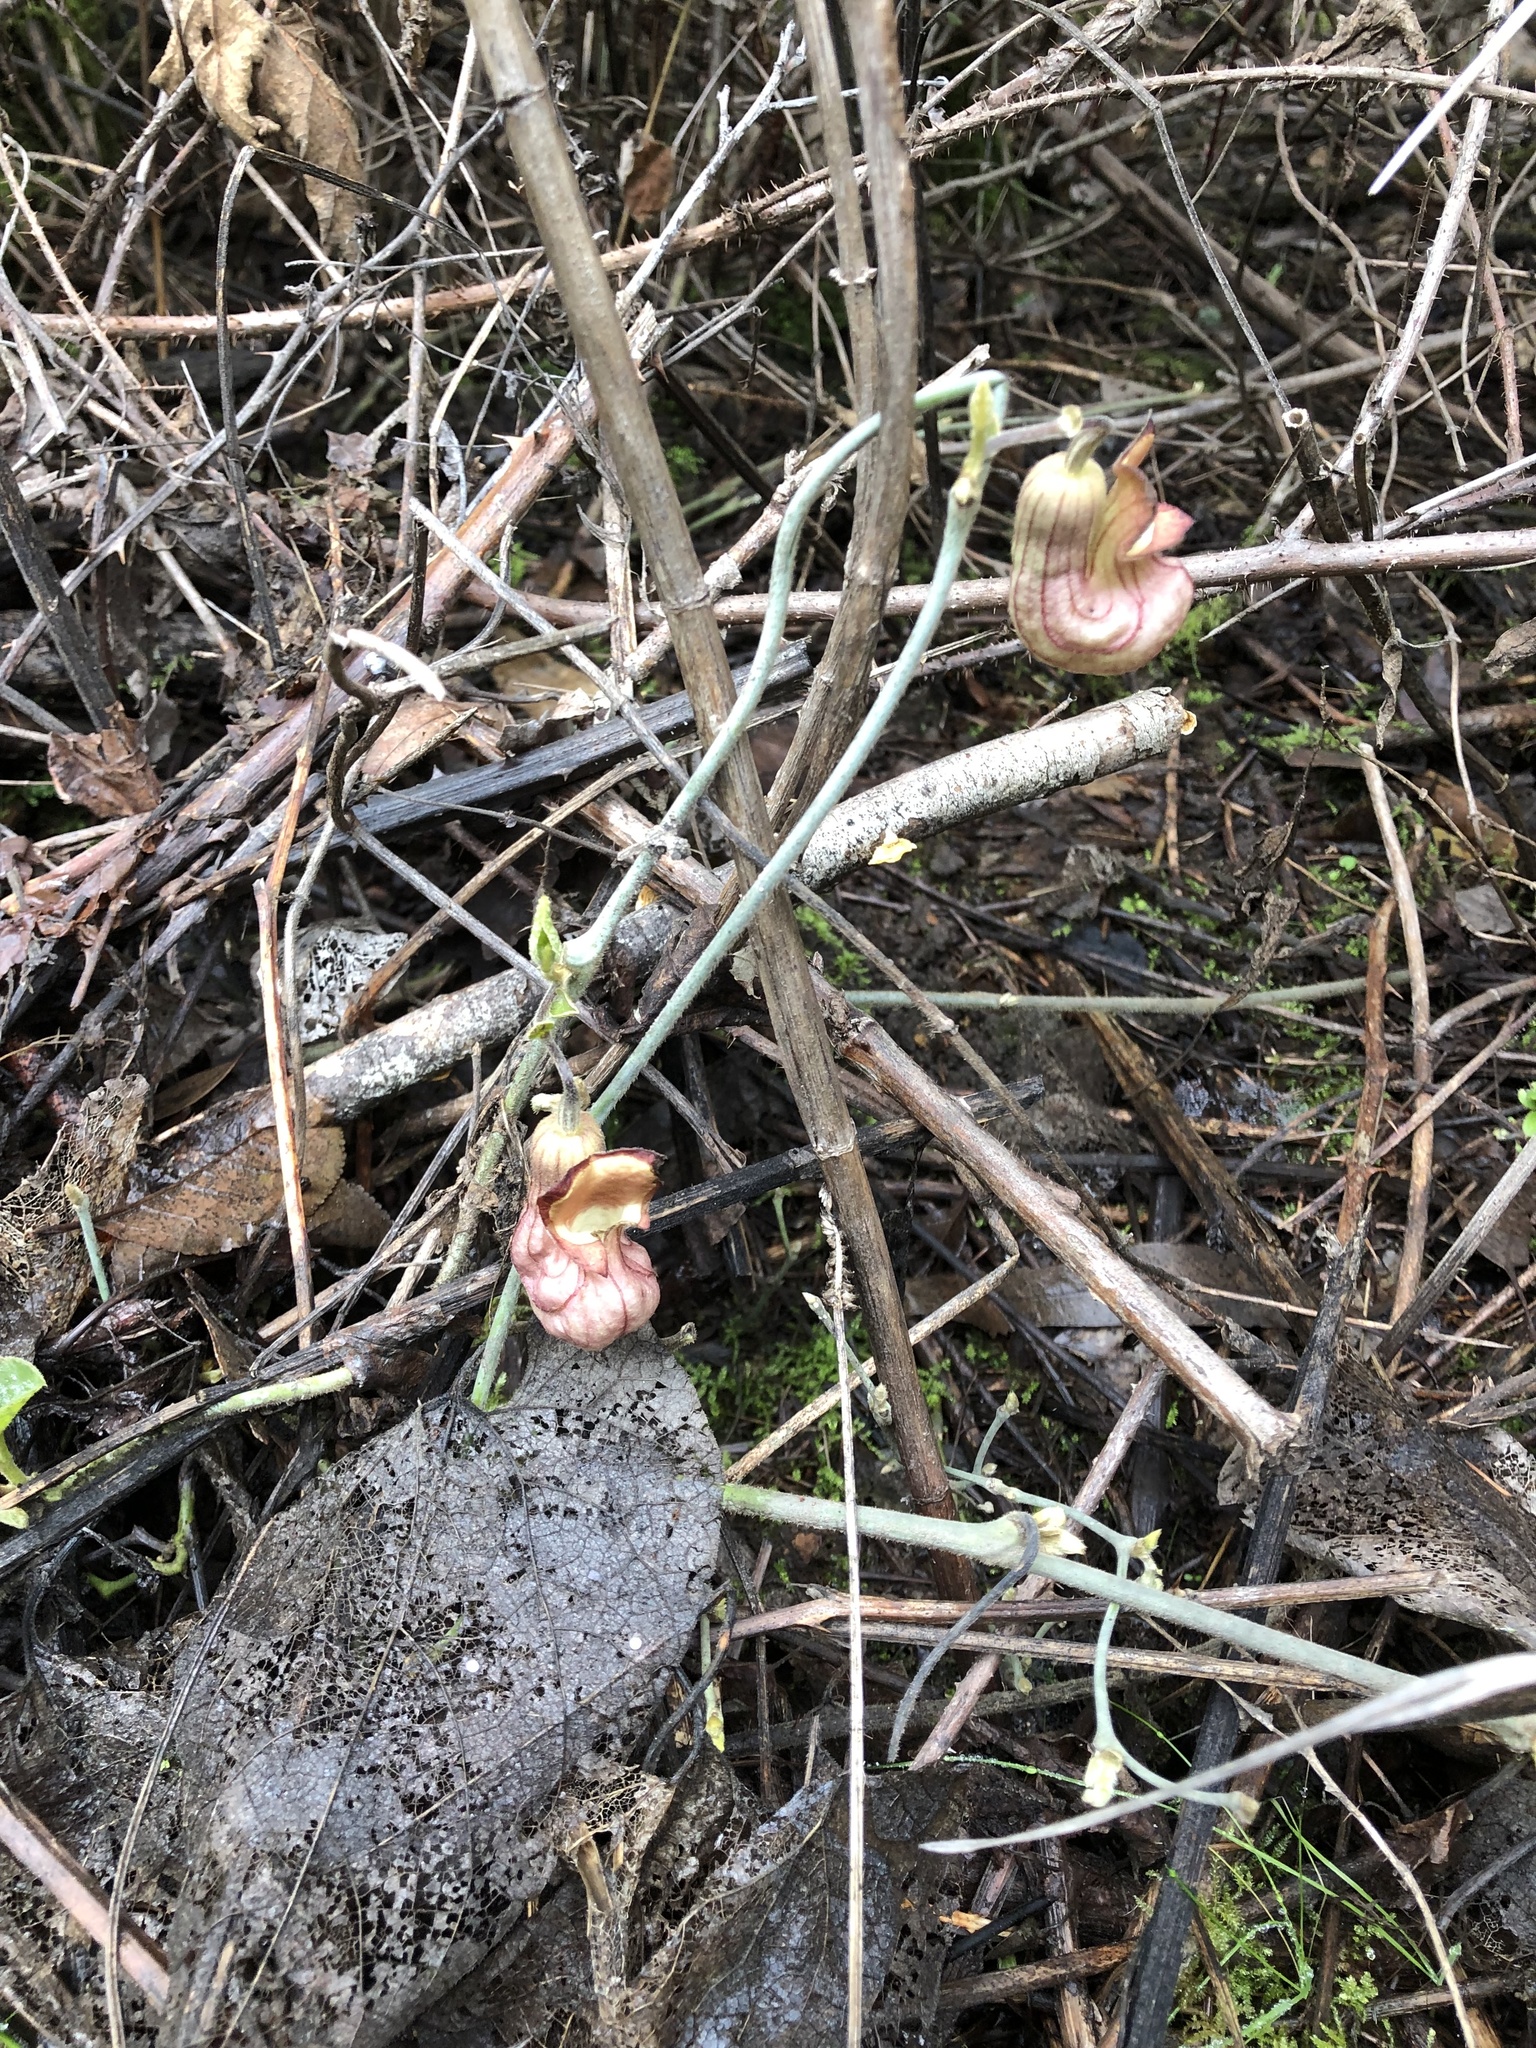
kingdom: Plantae
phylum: Tracheophyta
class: Magnoliopsida
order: Piperales
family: Aristolochiaceae
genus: Isotrema
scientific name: Isotrema californicum
